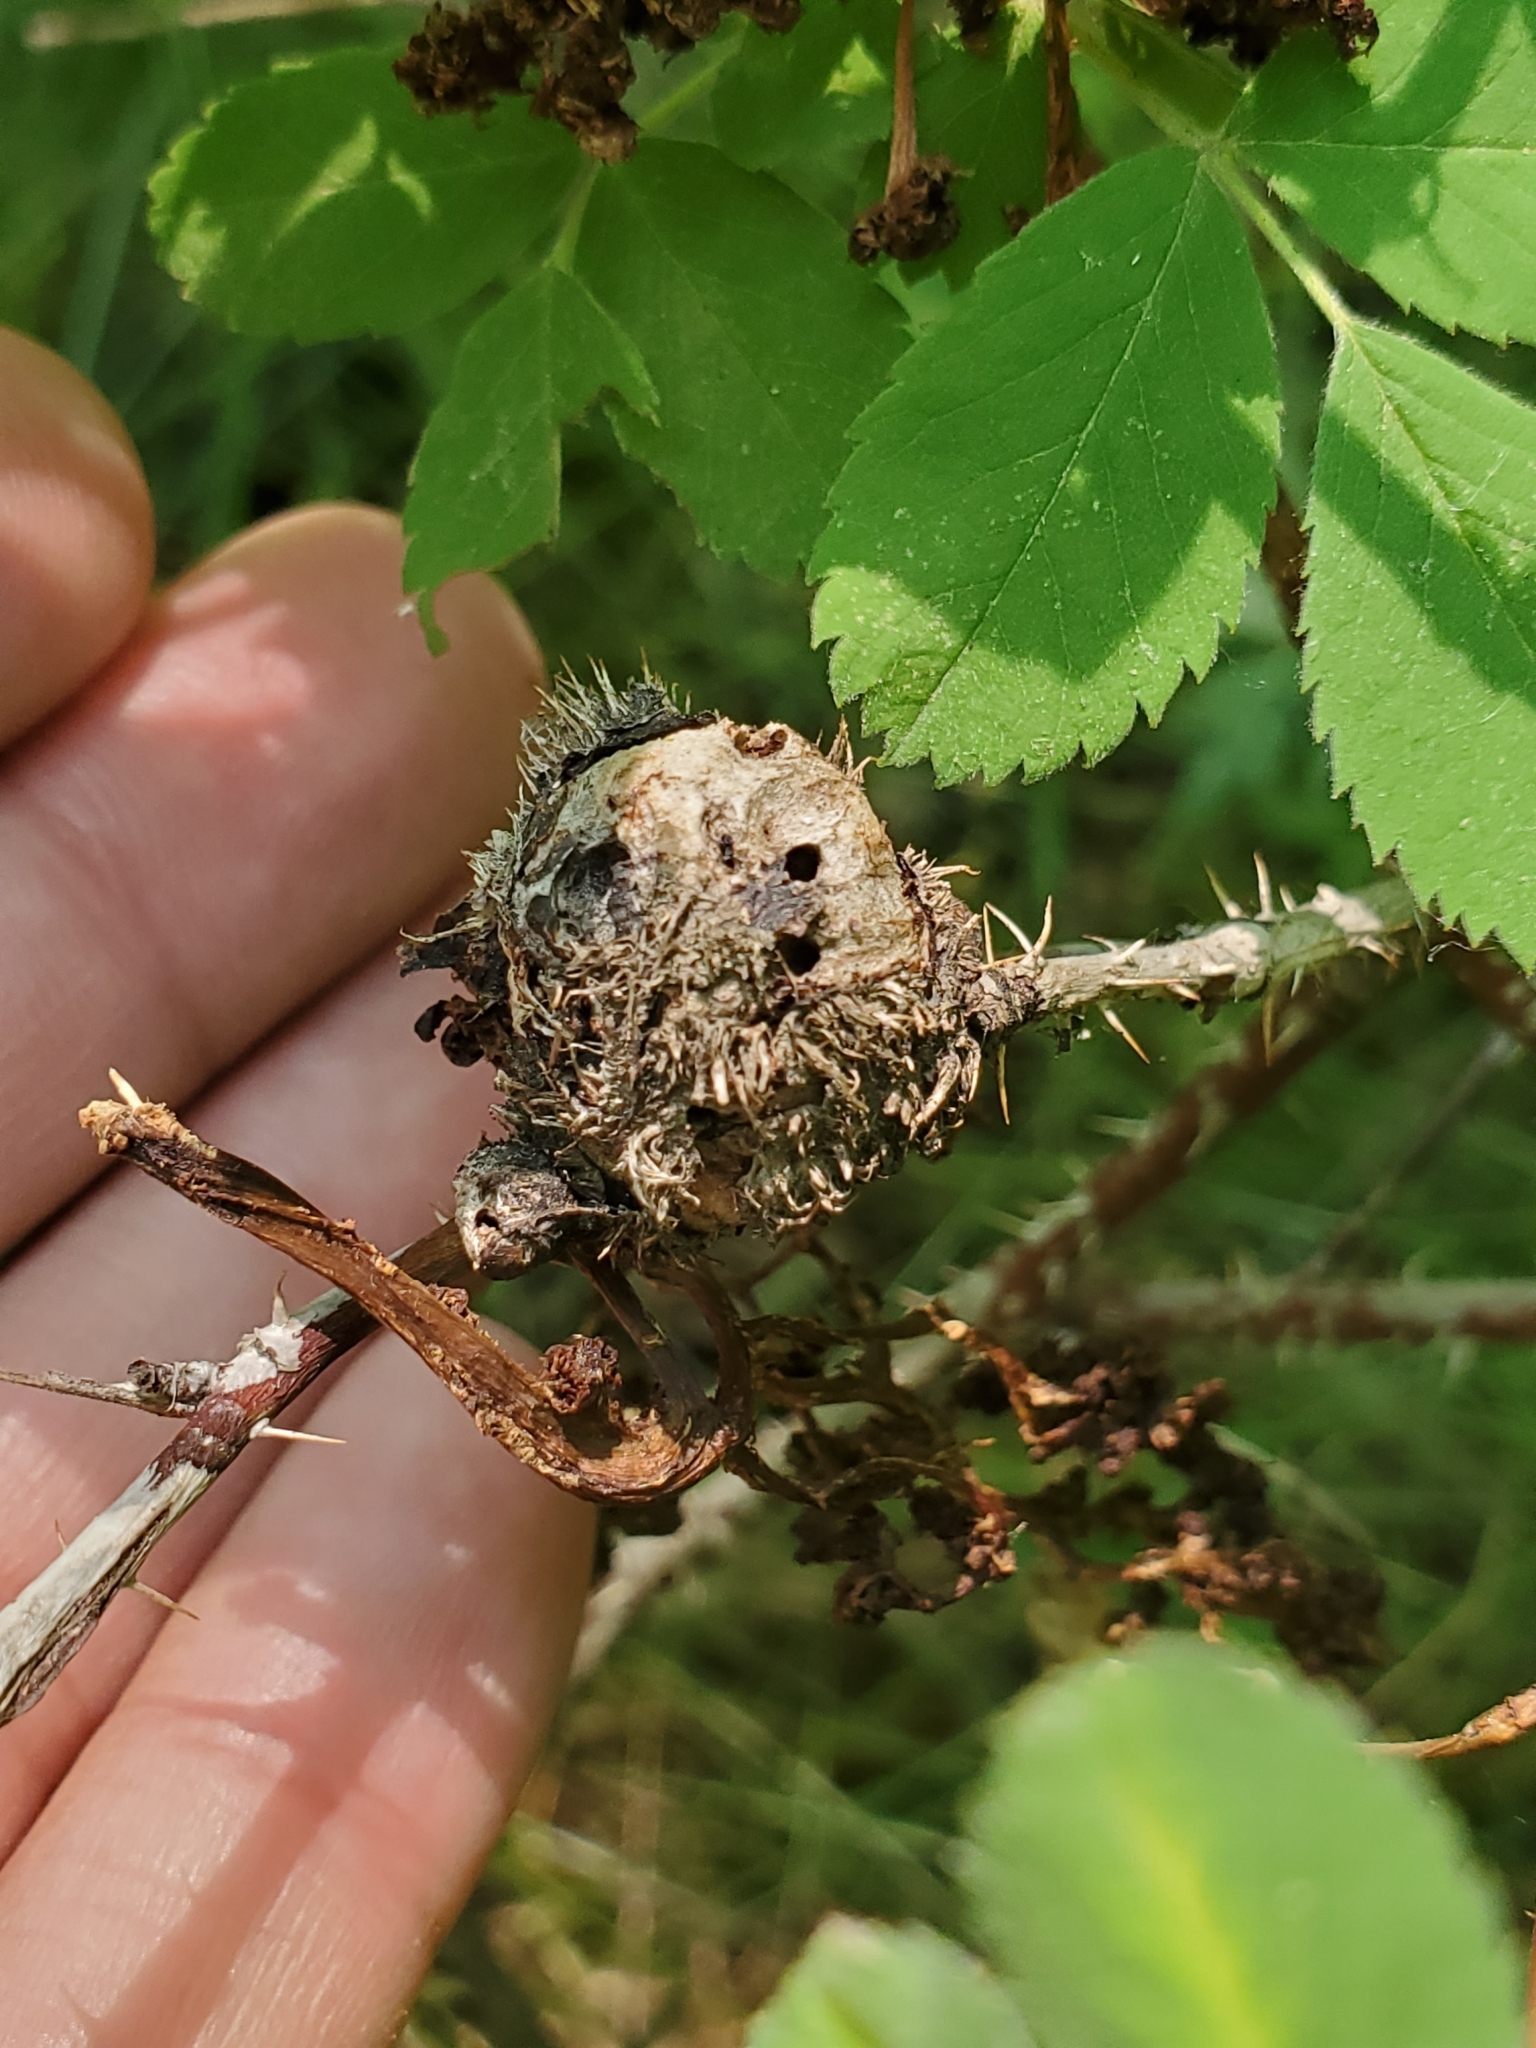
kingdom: Animalia
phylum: Arthropoda
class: Insecta
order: Hymenoptera
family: Cynipidae
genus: Diplolepis
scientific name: Diplolepis spinosa
